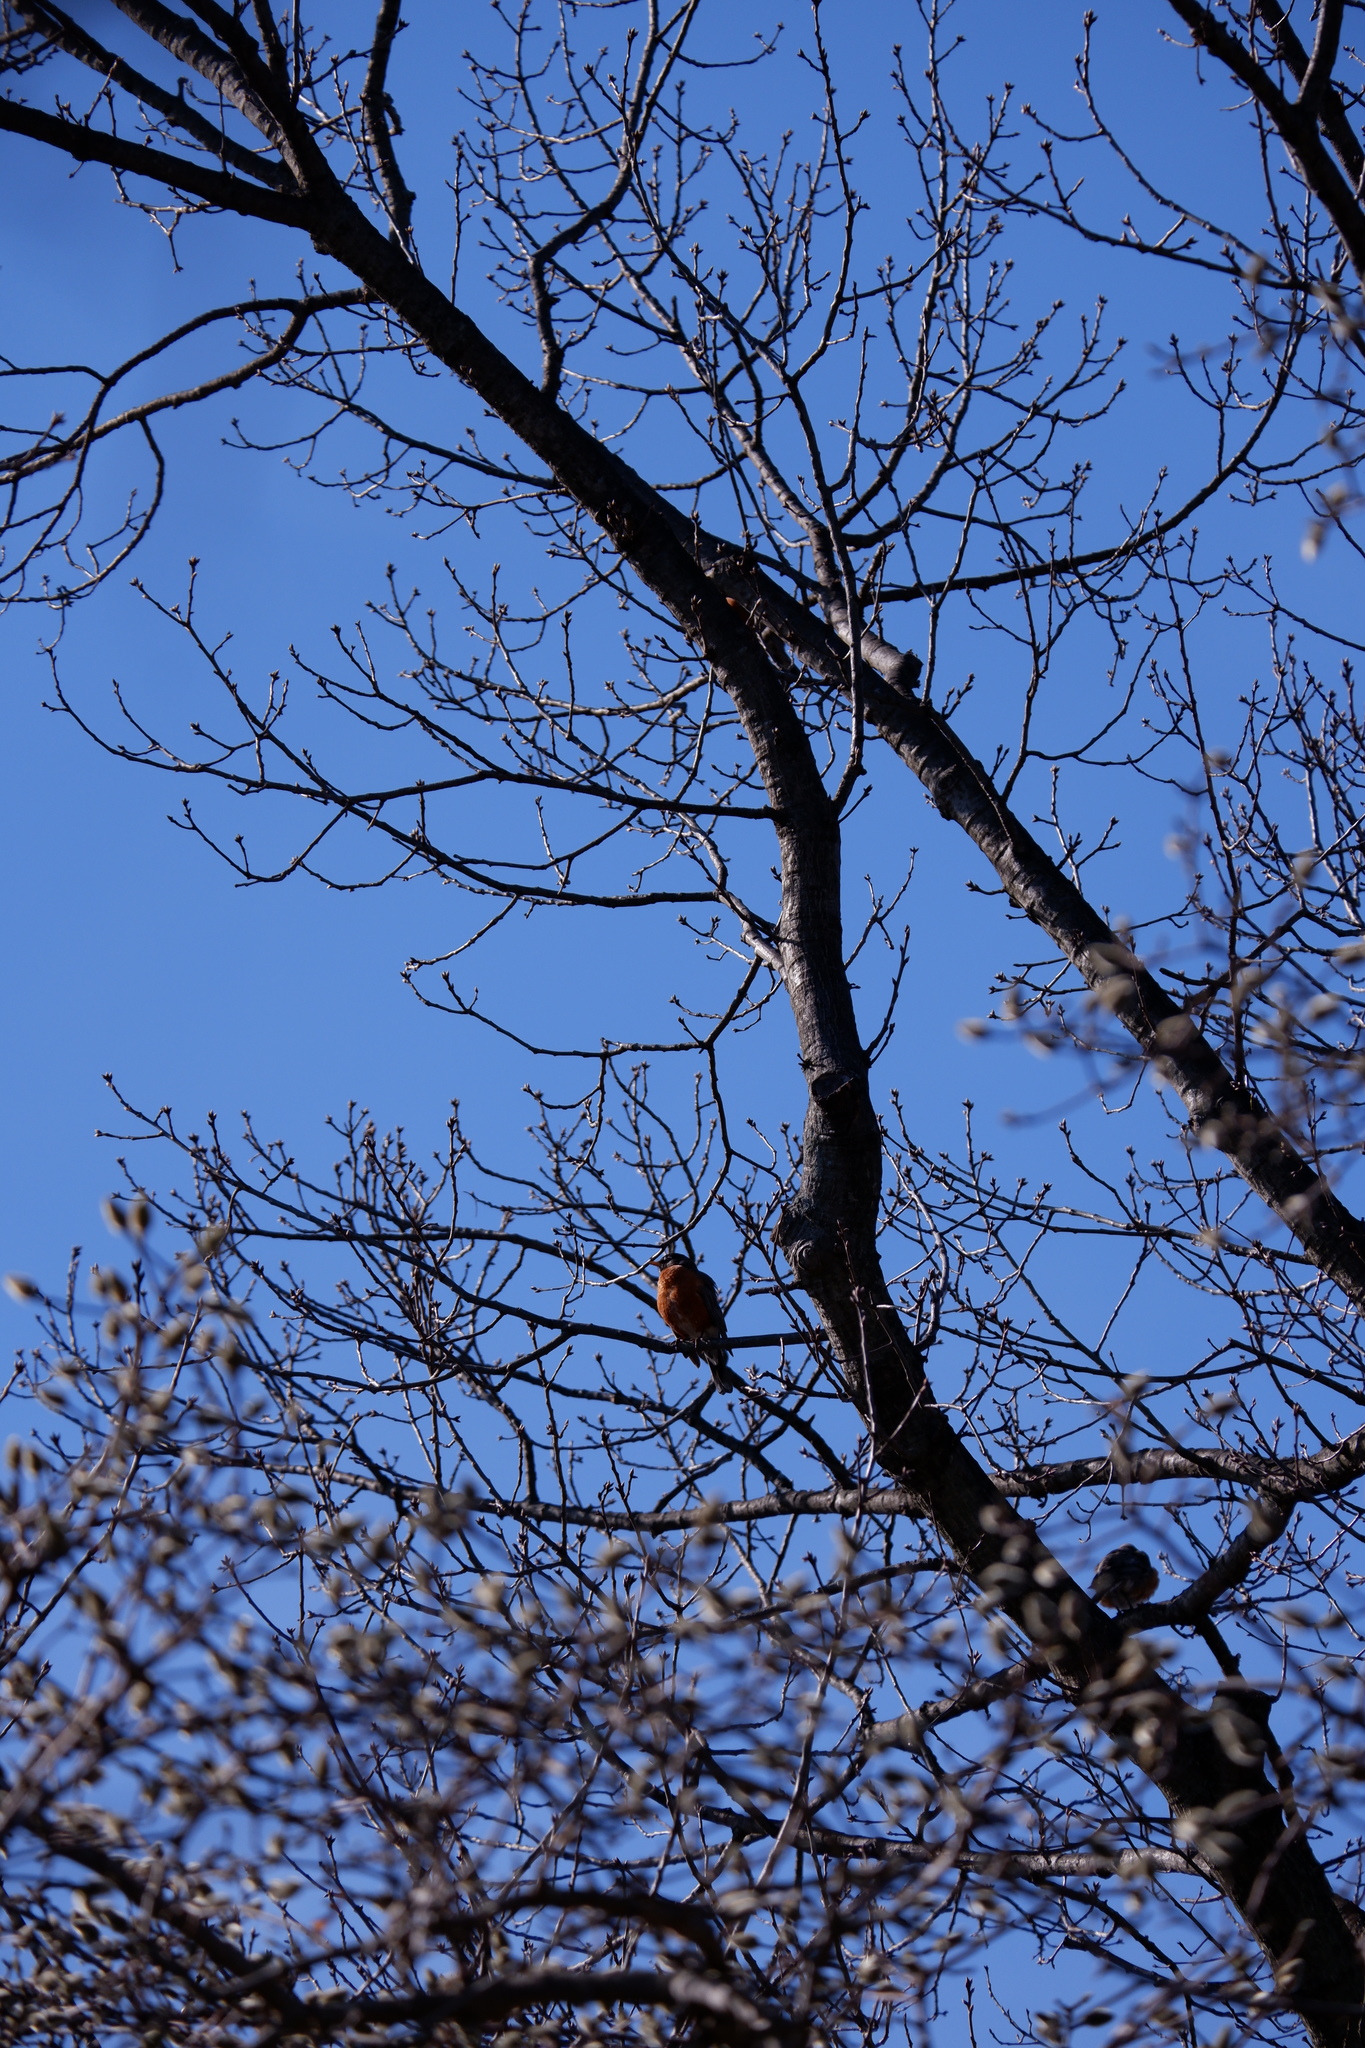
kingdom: Animalia
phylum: Chordata
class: Aves
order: Passeriformes
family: Turdidae
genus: Turdus
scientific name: Turdus migratorius
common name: American robin
